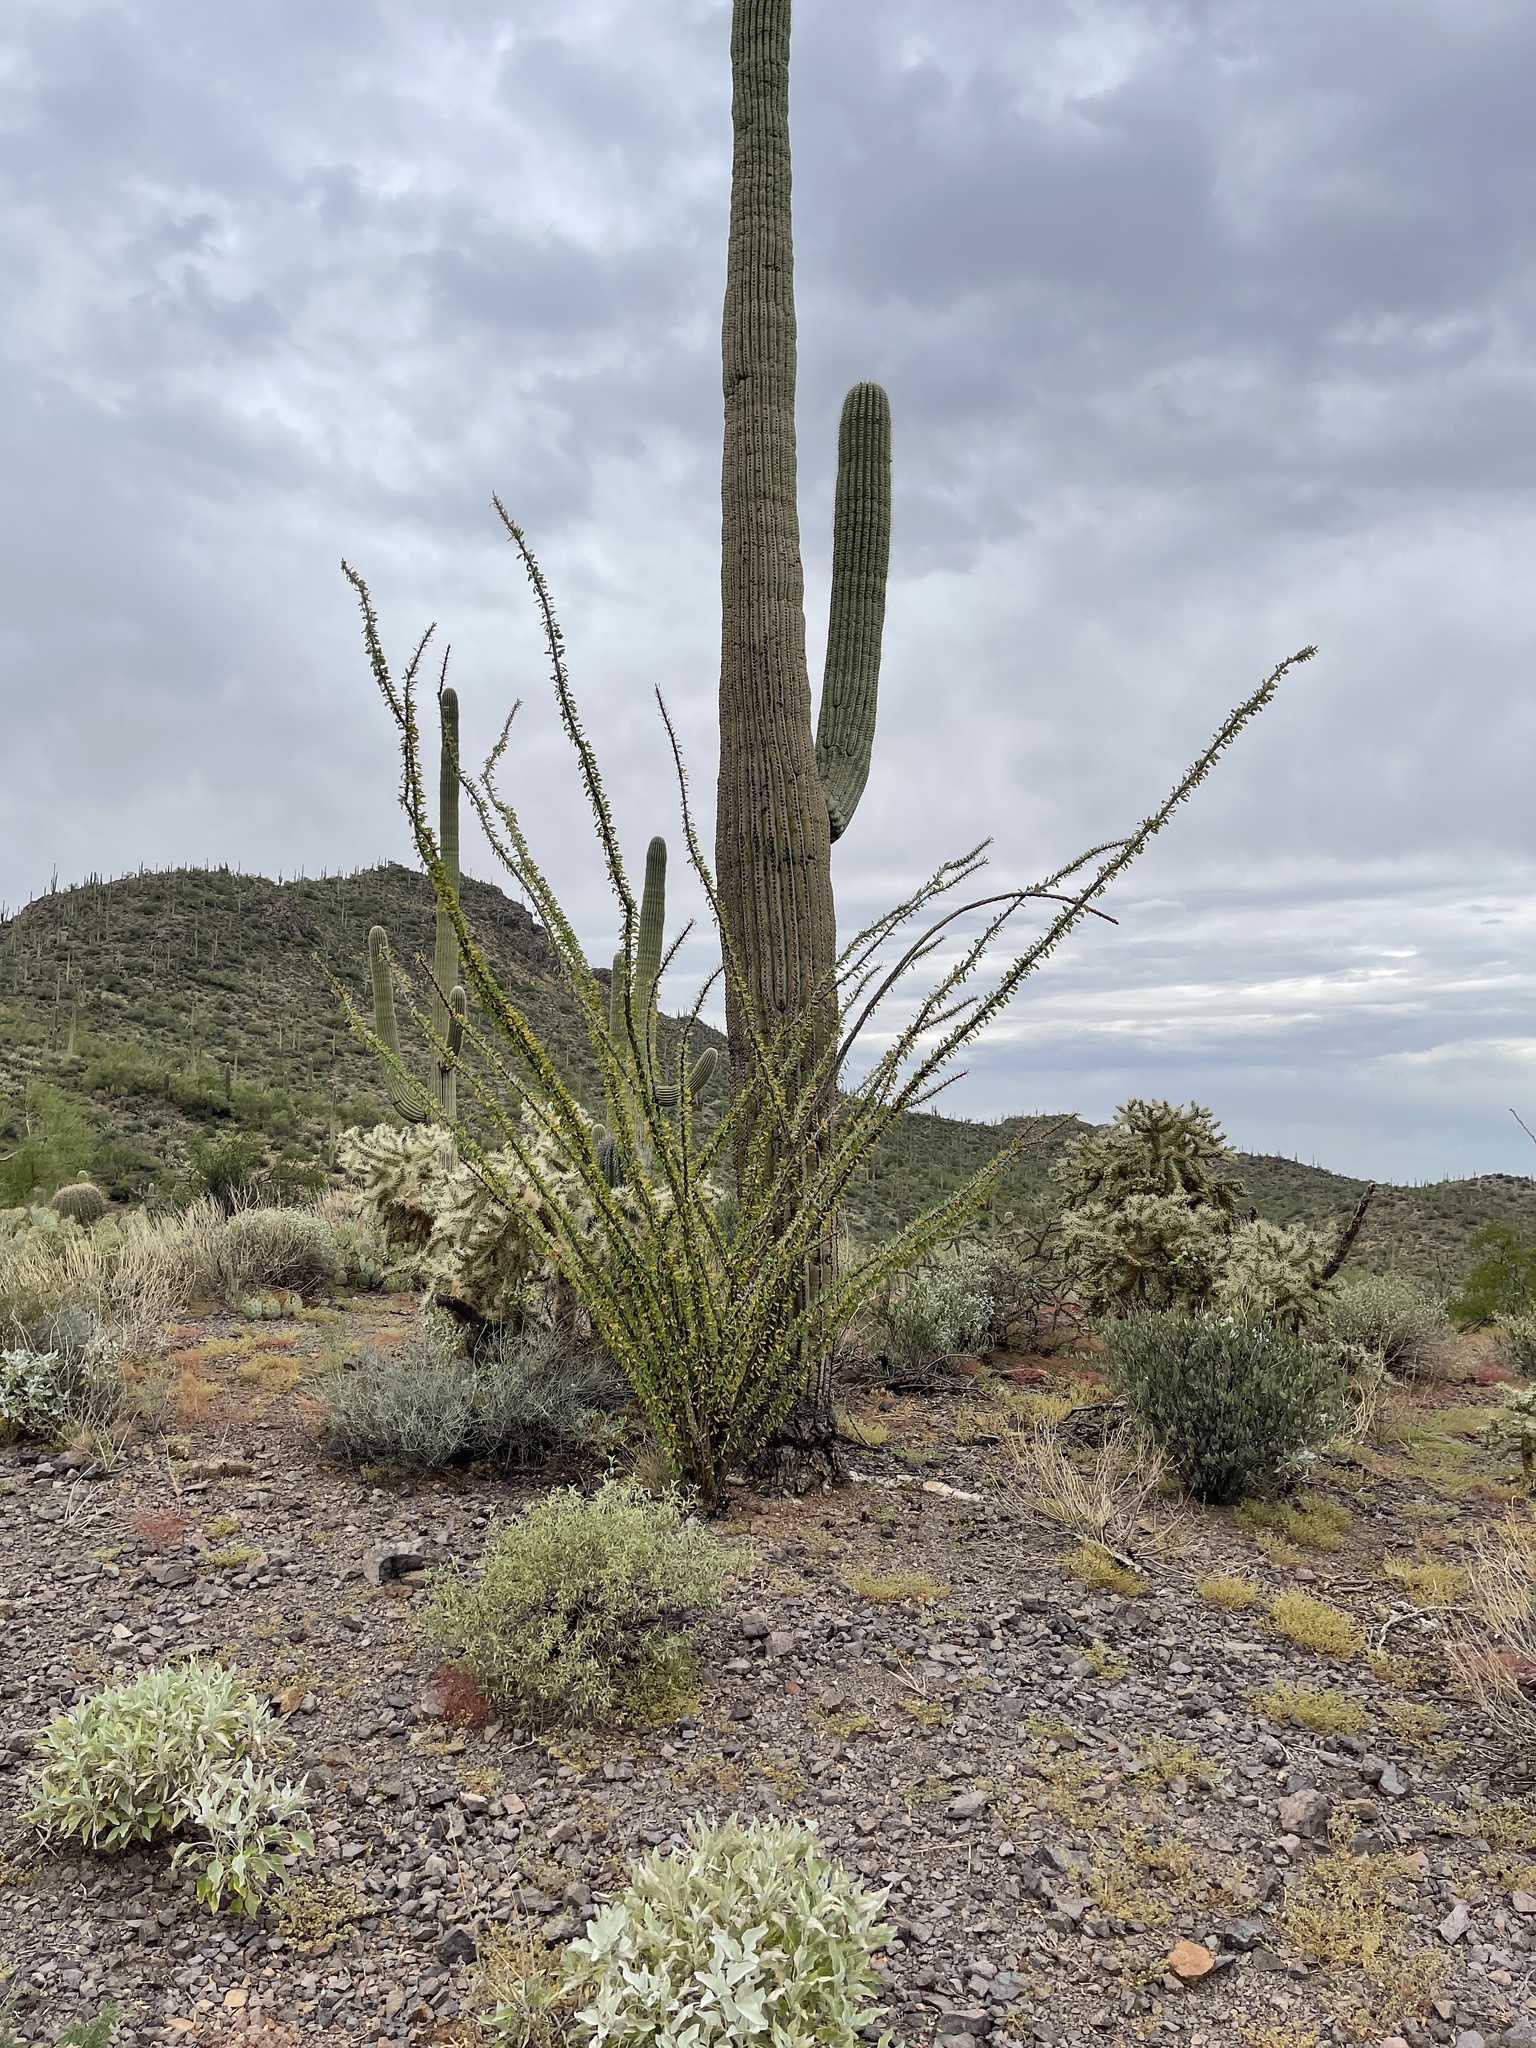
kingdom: Plantae
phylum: Tracheophyta
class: Magnoliopsida
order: Ericales
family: Fouquieriaceae
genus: Fouquieria
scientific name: Fouquieria splendens
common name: Vine-cactus
